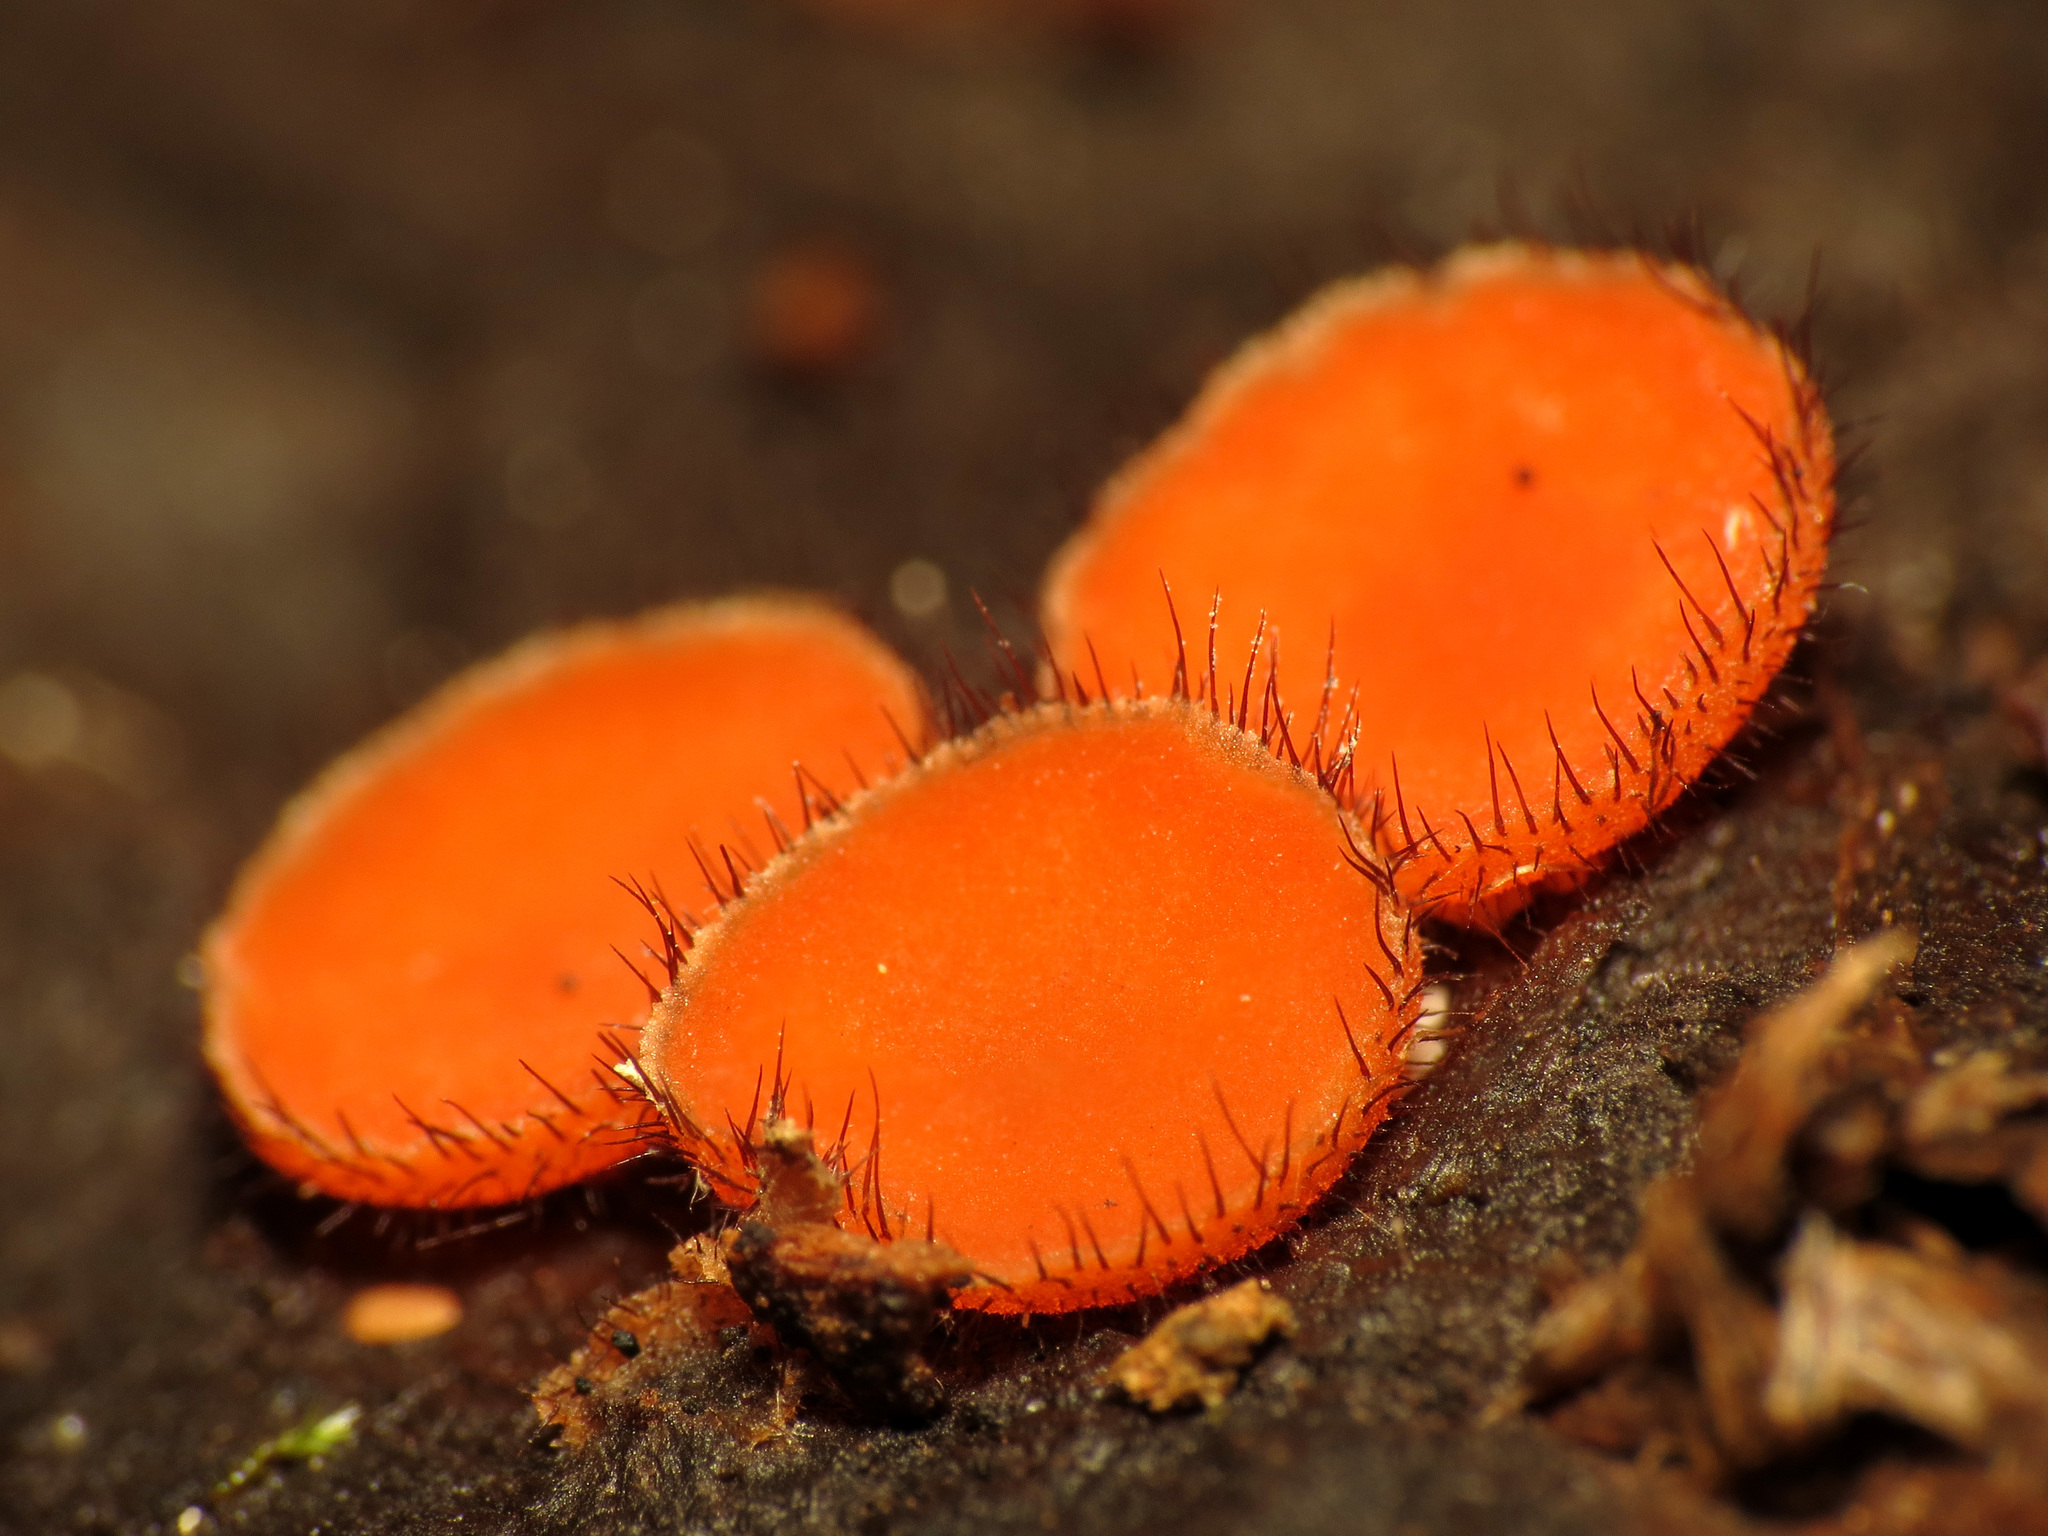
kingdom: Fungi
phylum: Ascomycota
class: Pezizomycetes
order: Pezizales
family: Pyronemataceae
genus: Scutellinia
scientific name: Scutellinia scutellata
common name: Common eyelash
